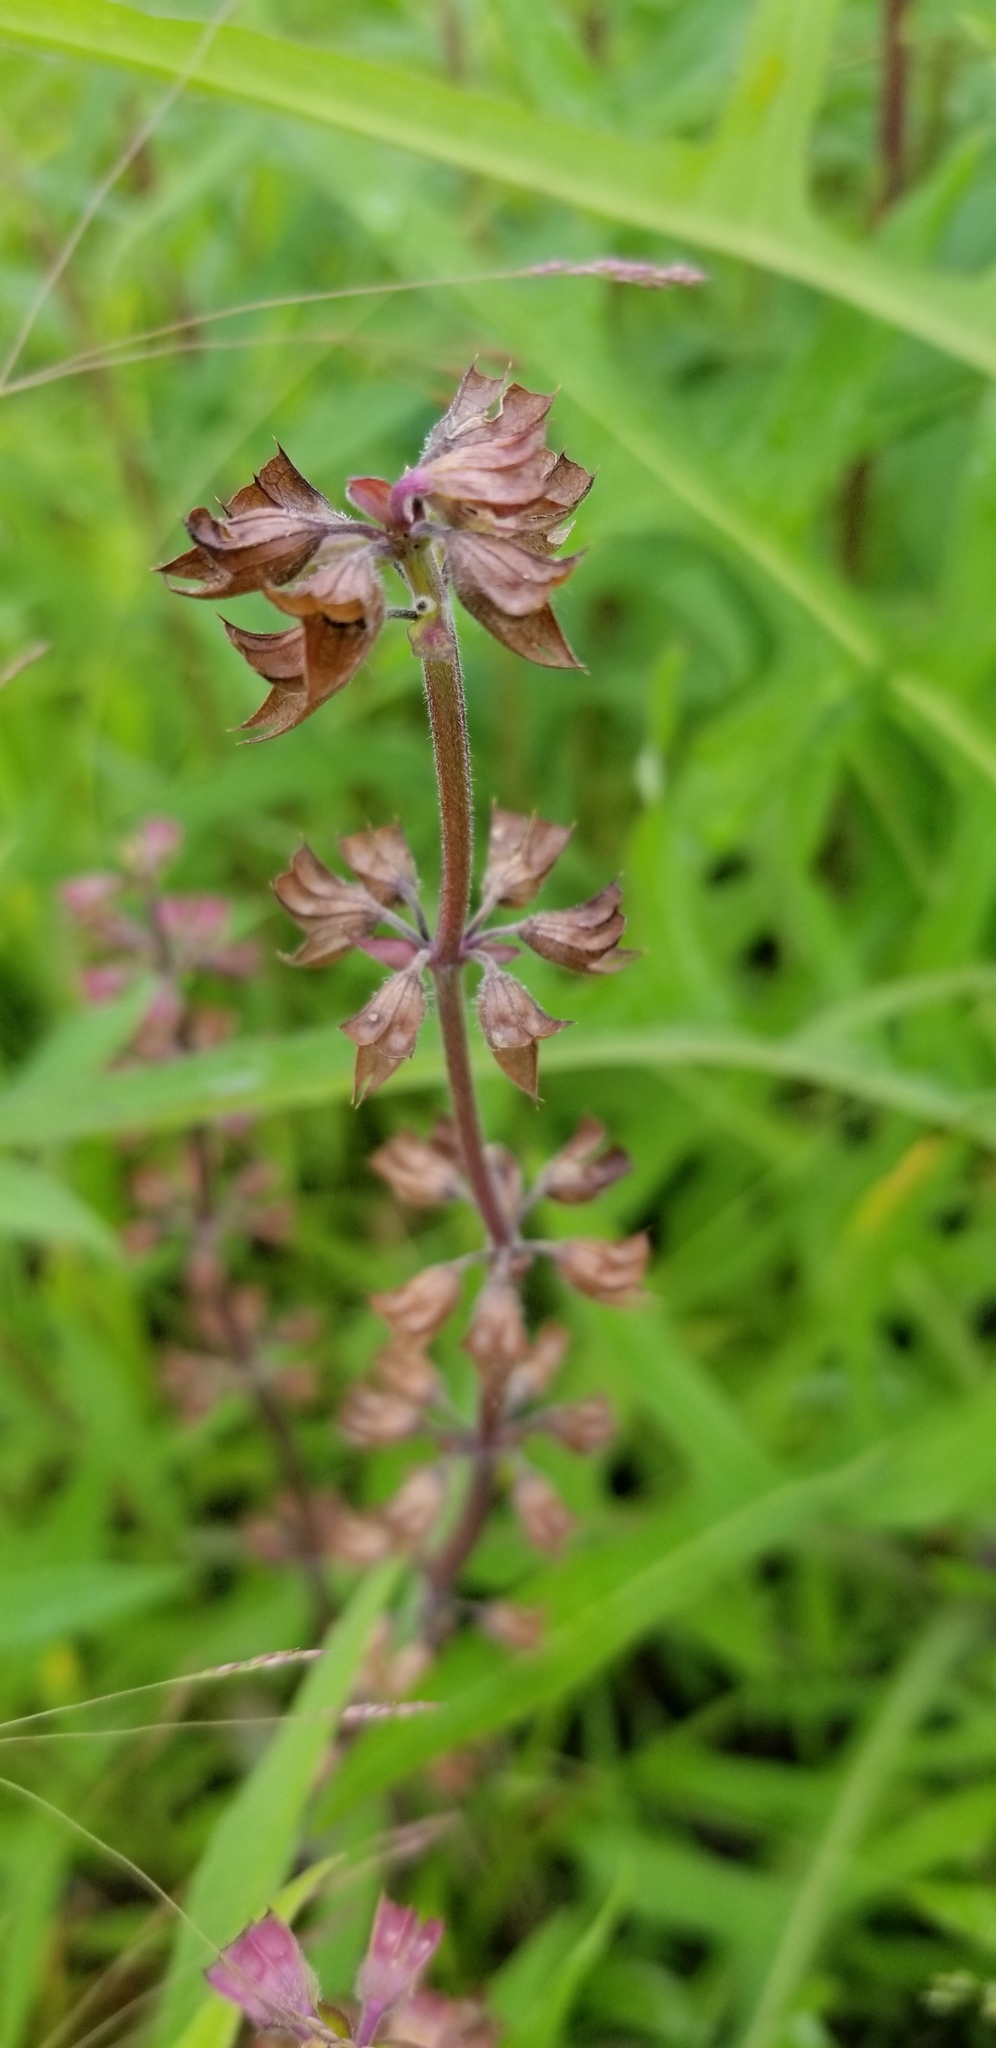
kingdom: Plantae
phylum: Tracheophyta
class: Magnoliopsida
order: Lamiales
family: Lamiaceae
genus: Salvia
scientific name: Salvia lyrata
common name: Cancerweed
